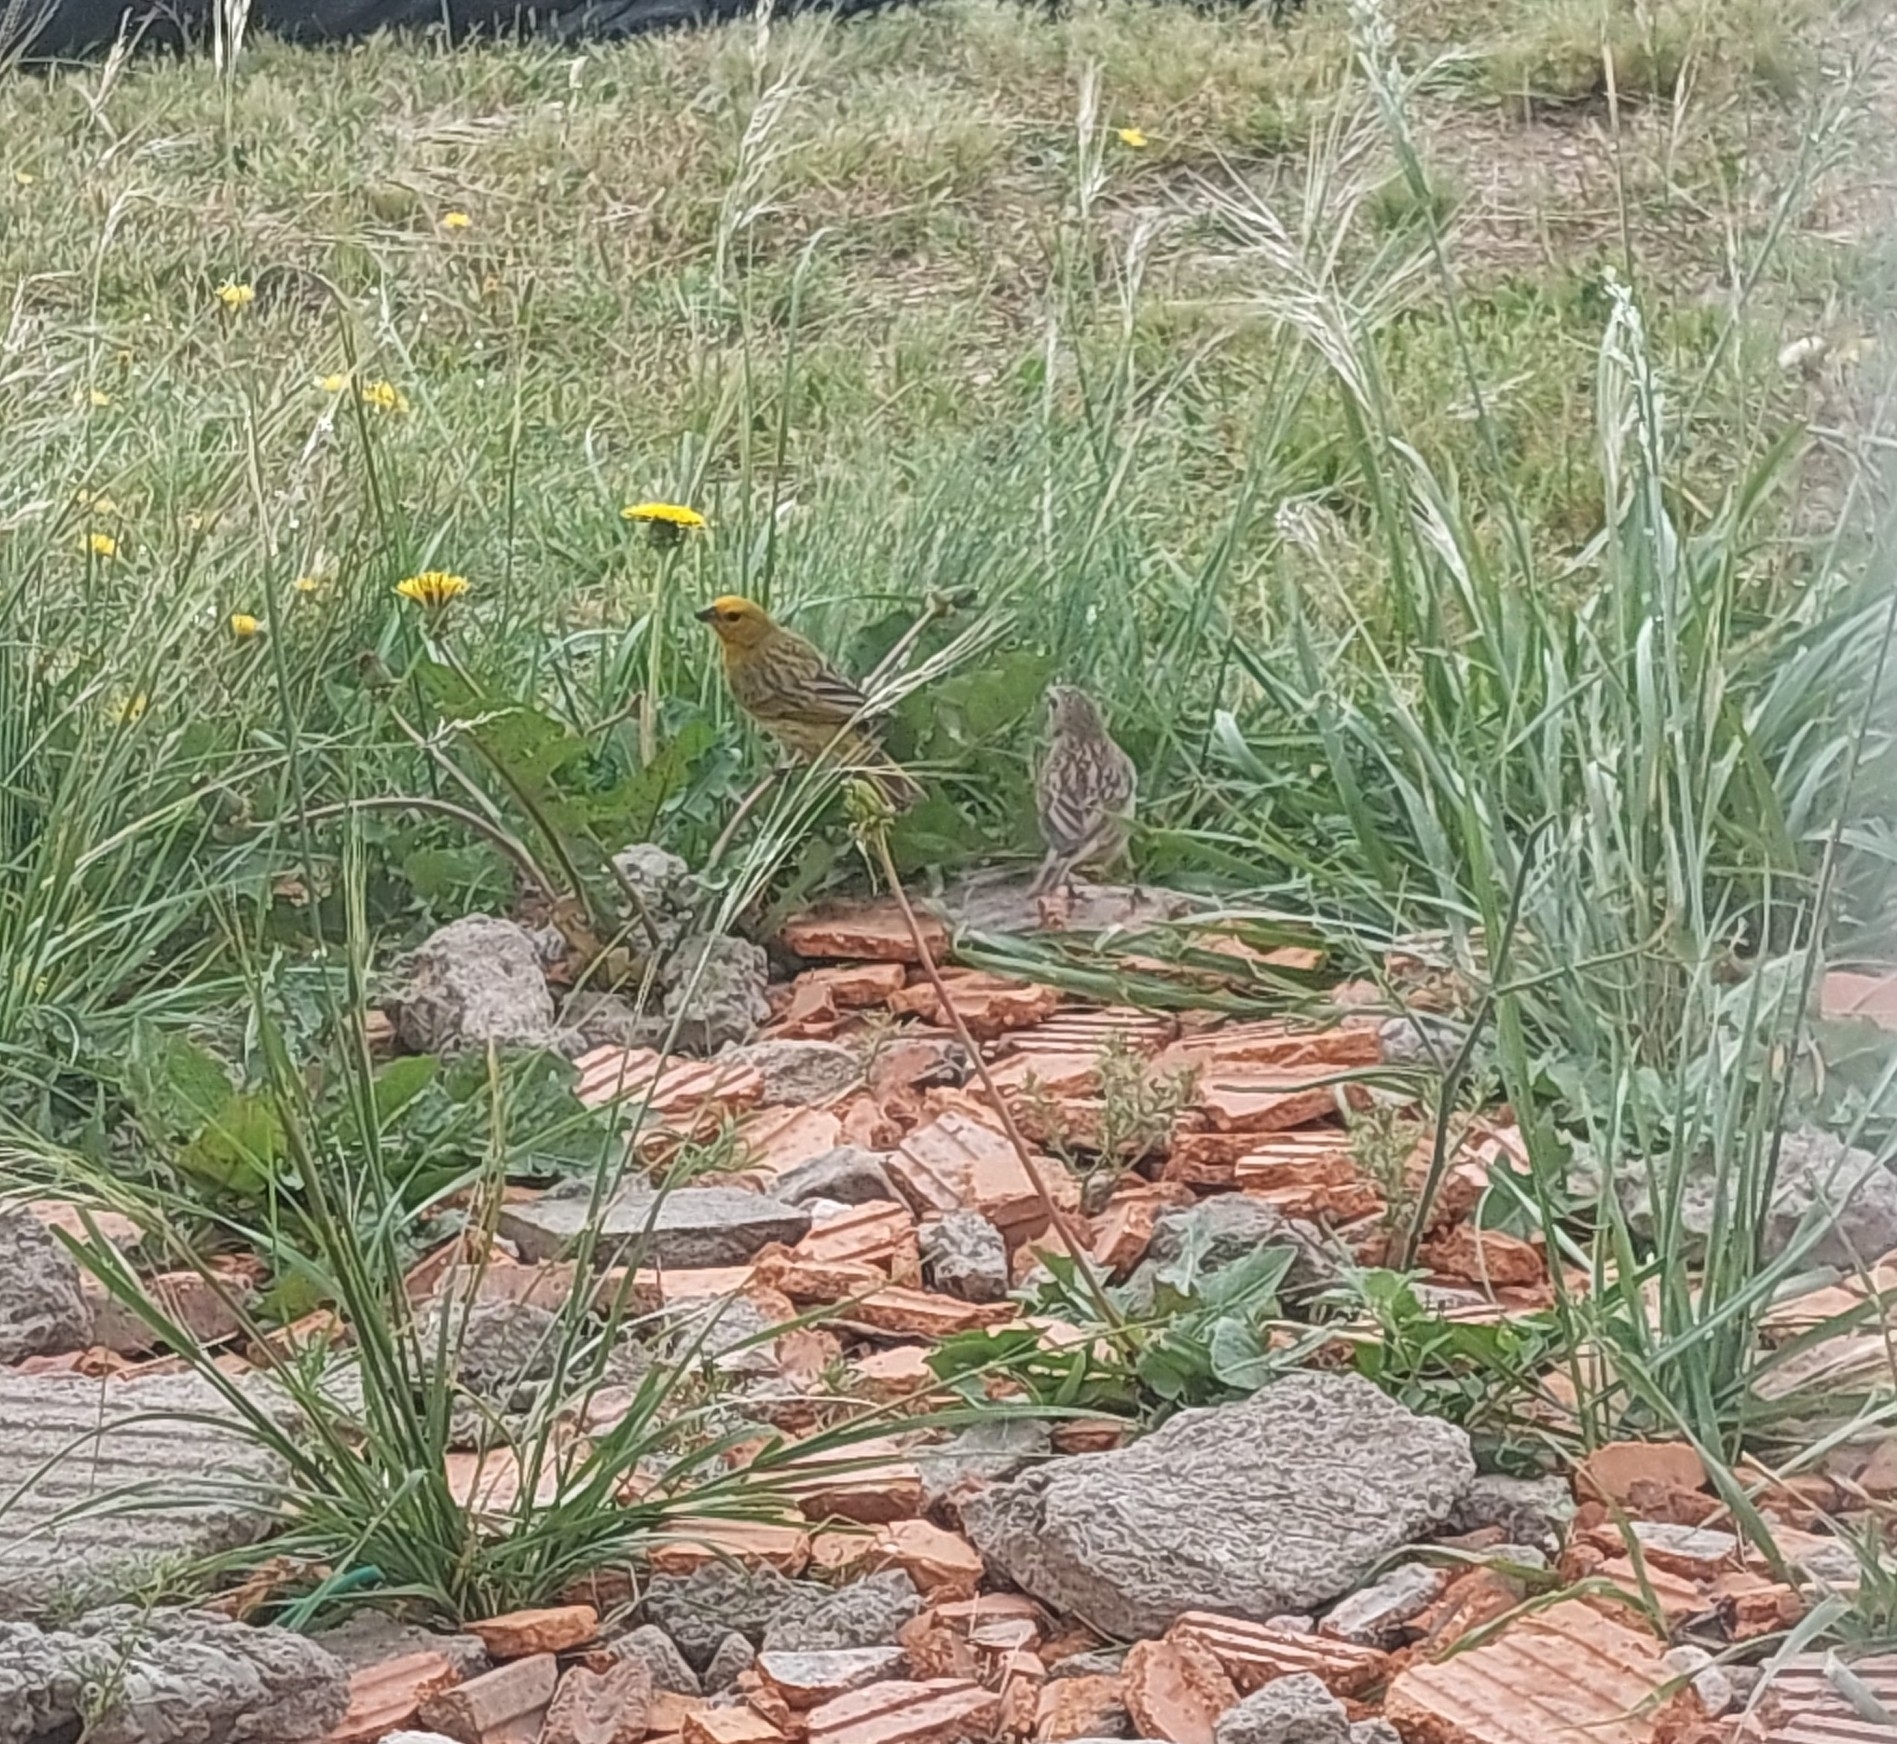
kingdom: Animalia
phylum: Chordata
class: Aves
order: Passeriformes
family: Thraupidae
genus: Sicalis
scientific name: Sicalis flaveola
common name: Saffron finch
